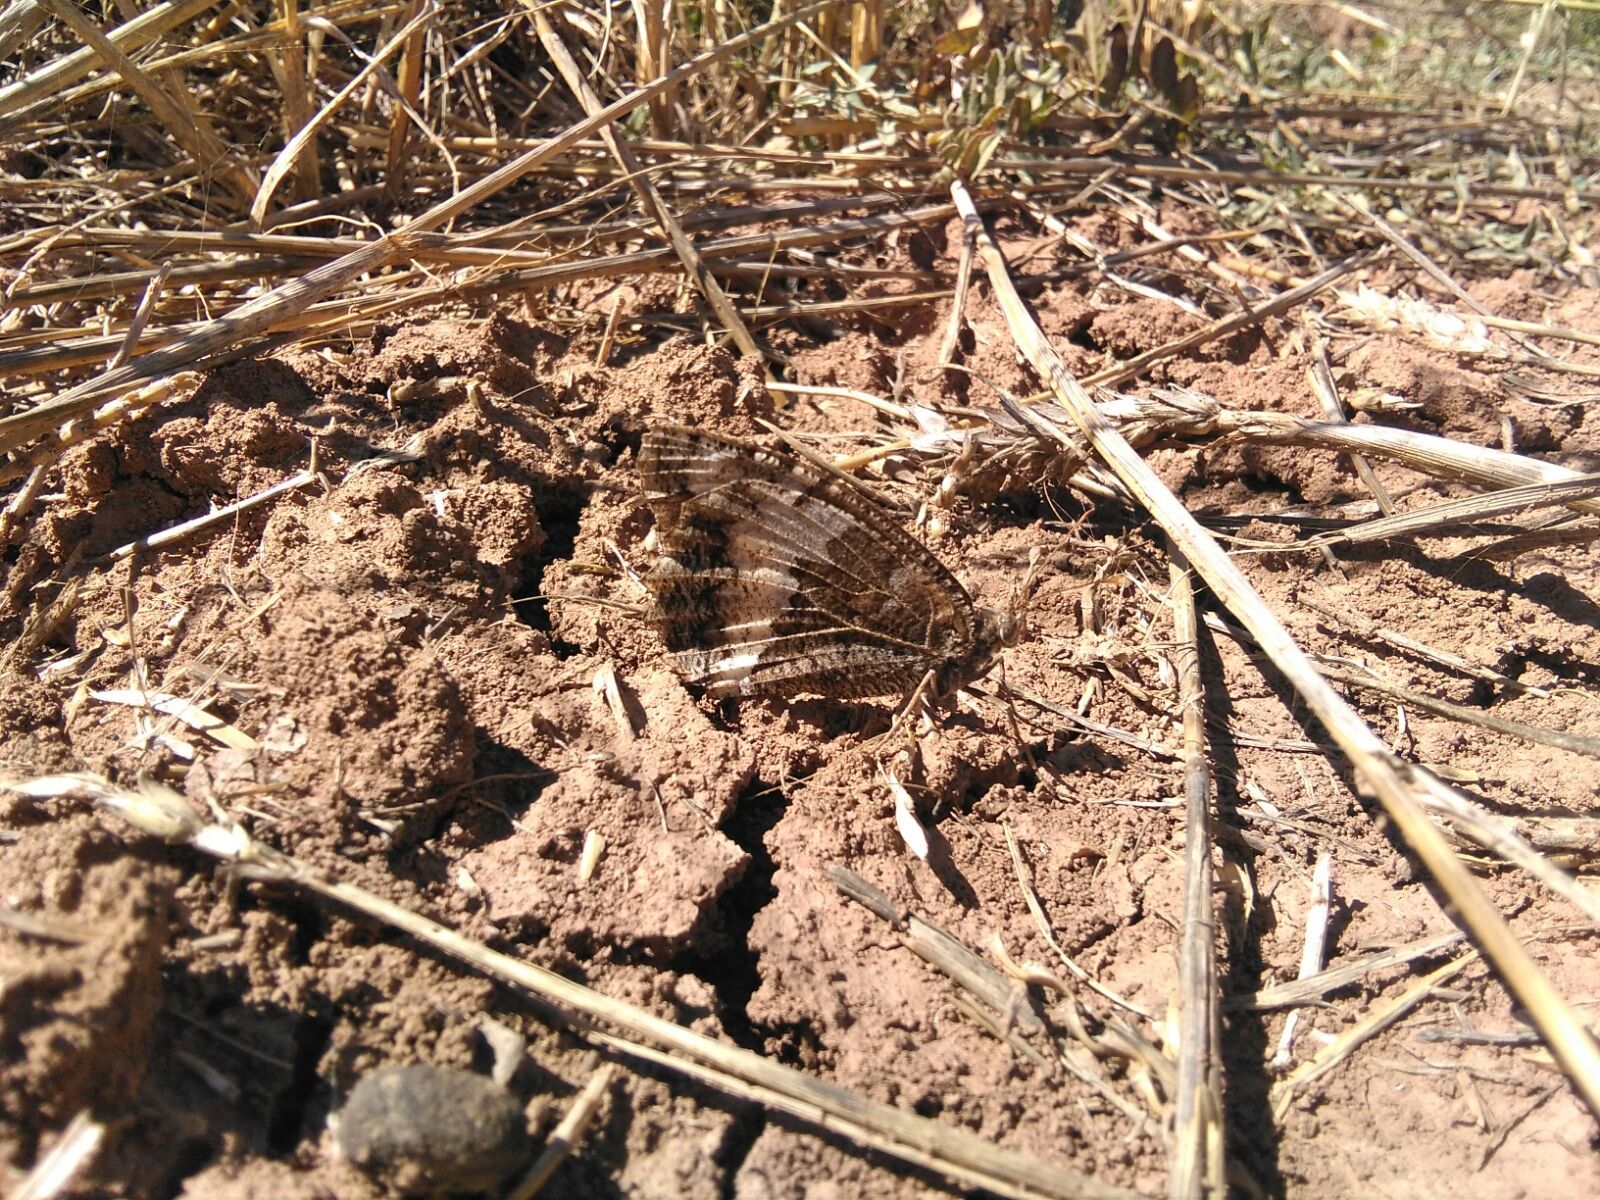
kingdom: Animalia
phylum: Arthropoda
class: Insecta
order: Lepidoptera
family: Lycaenidae
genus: Loweia
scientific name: Loweia tityrus
